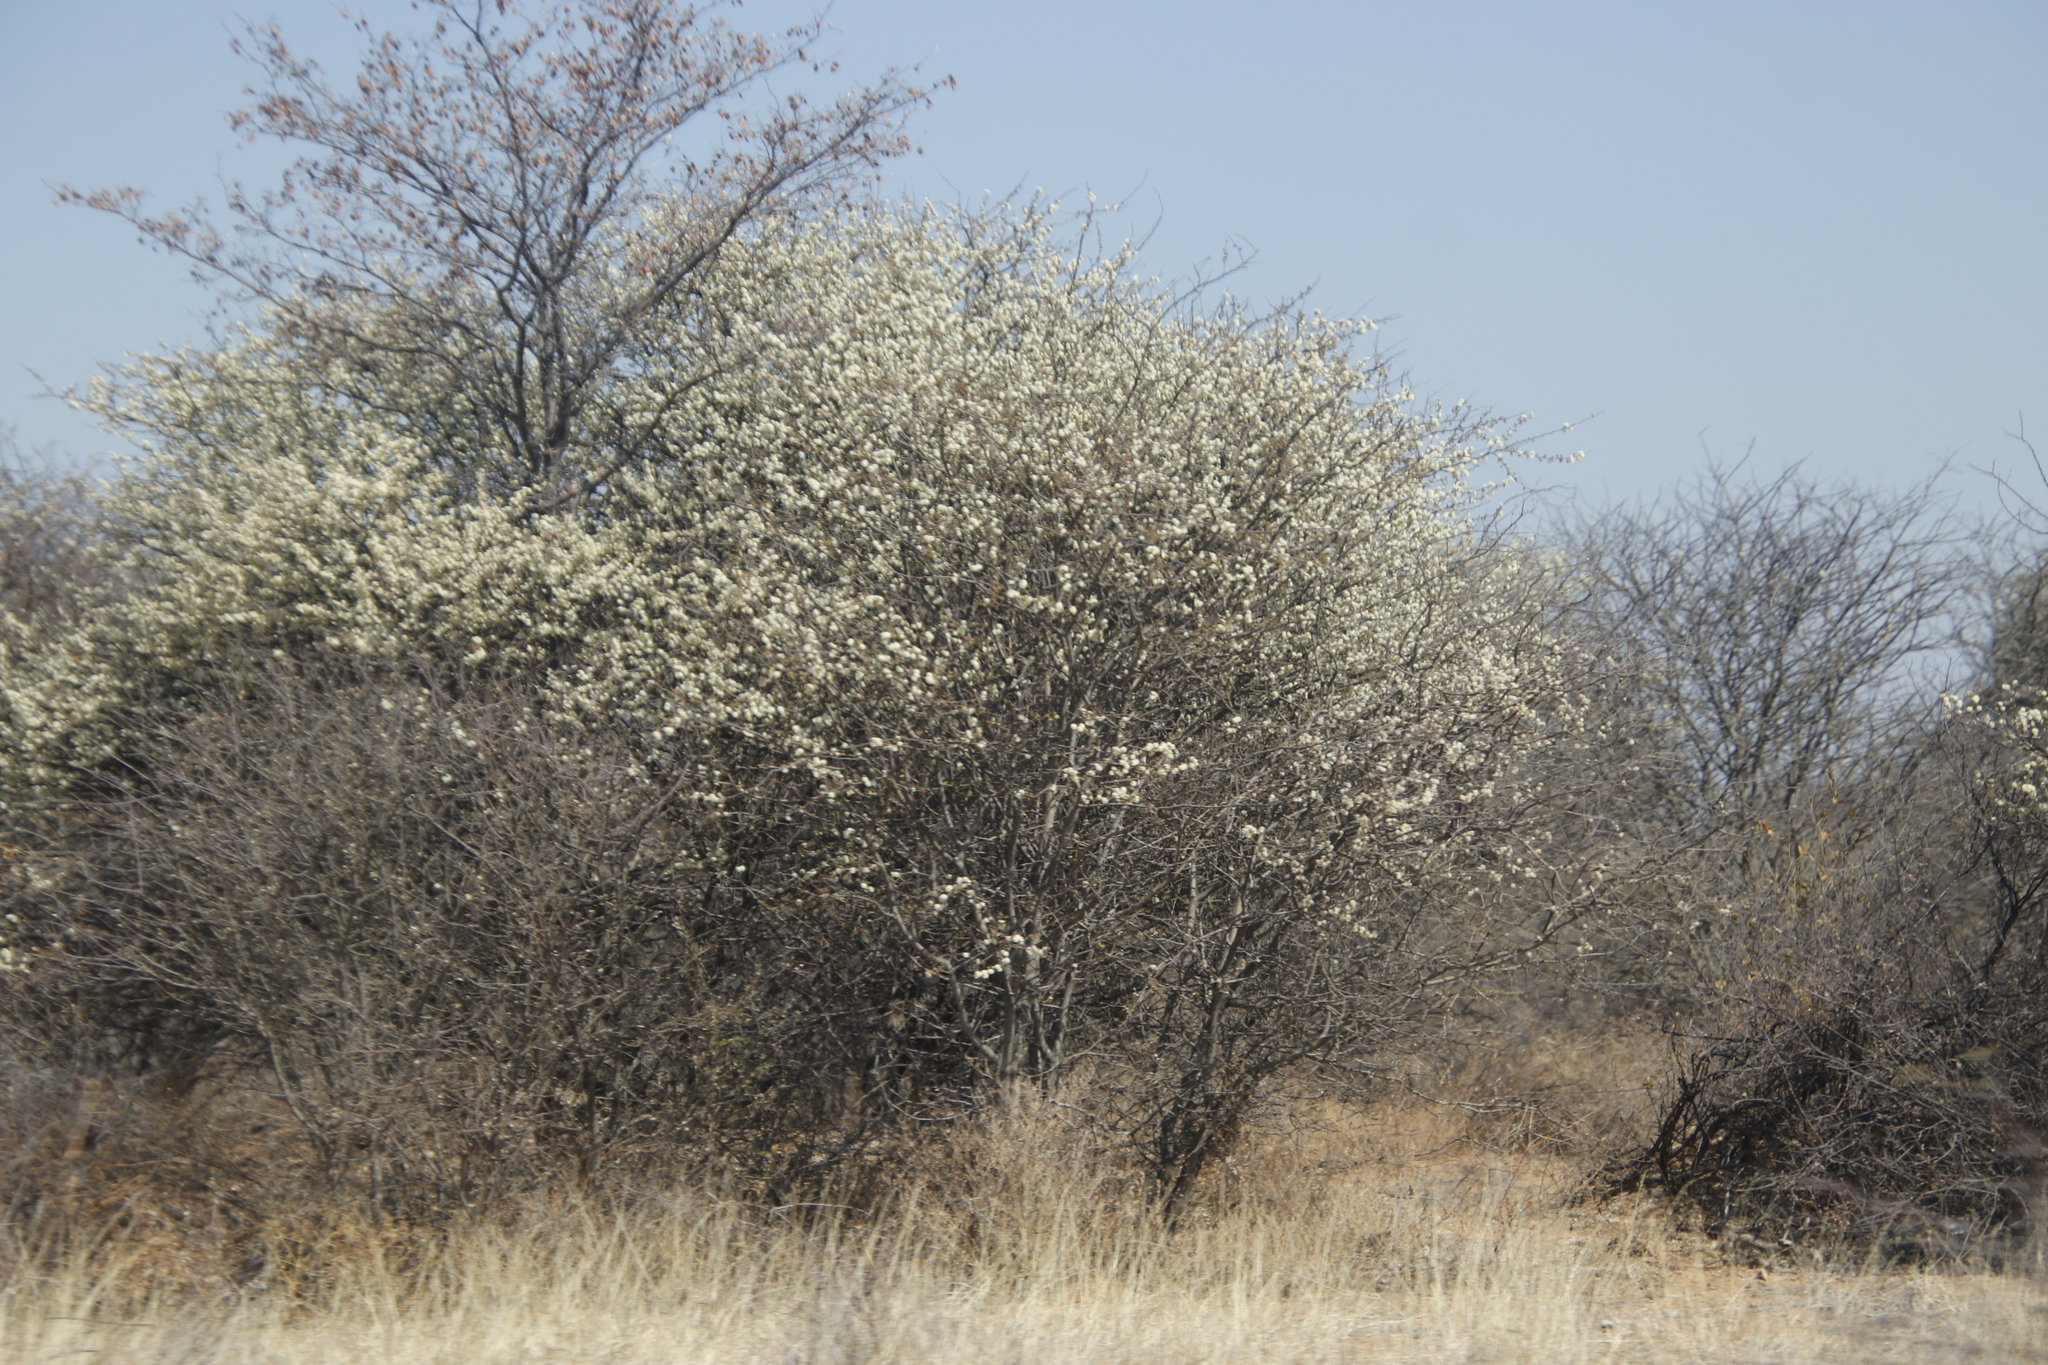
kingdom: Plantae
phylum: Tracheophyta
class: Magnoliopsida
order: Fabales
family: Fabaceae
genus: Senegalia
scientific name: Senegalia mellifera
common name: Hookthorn
